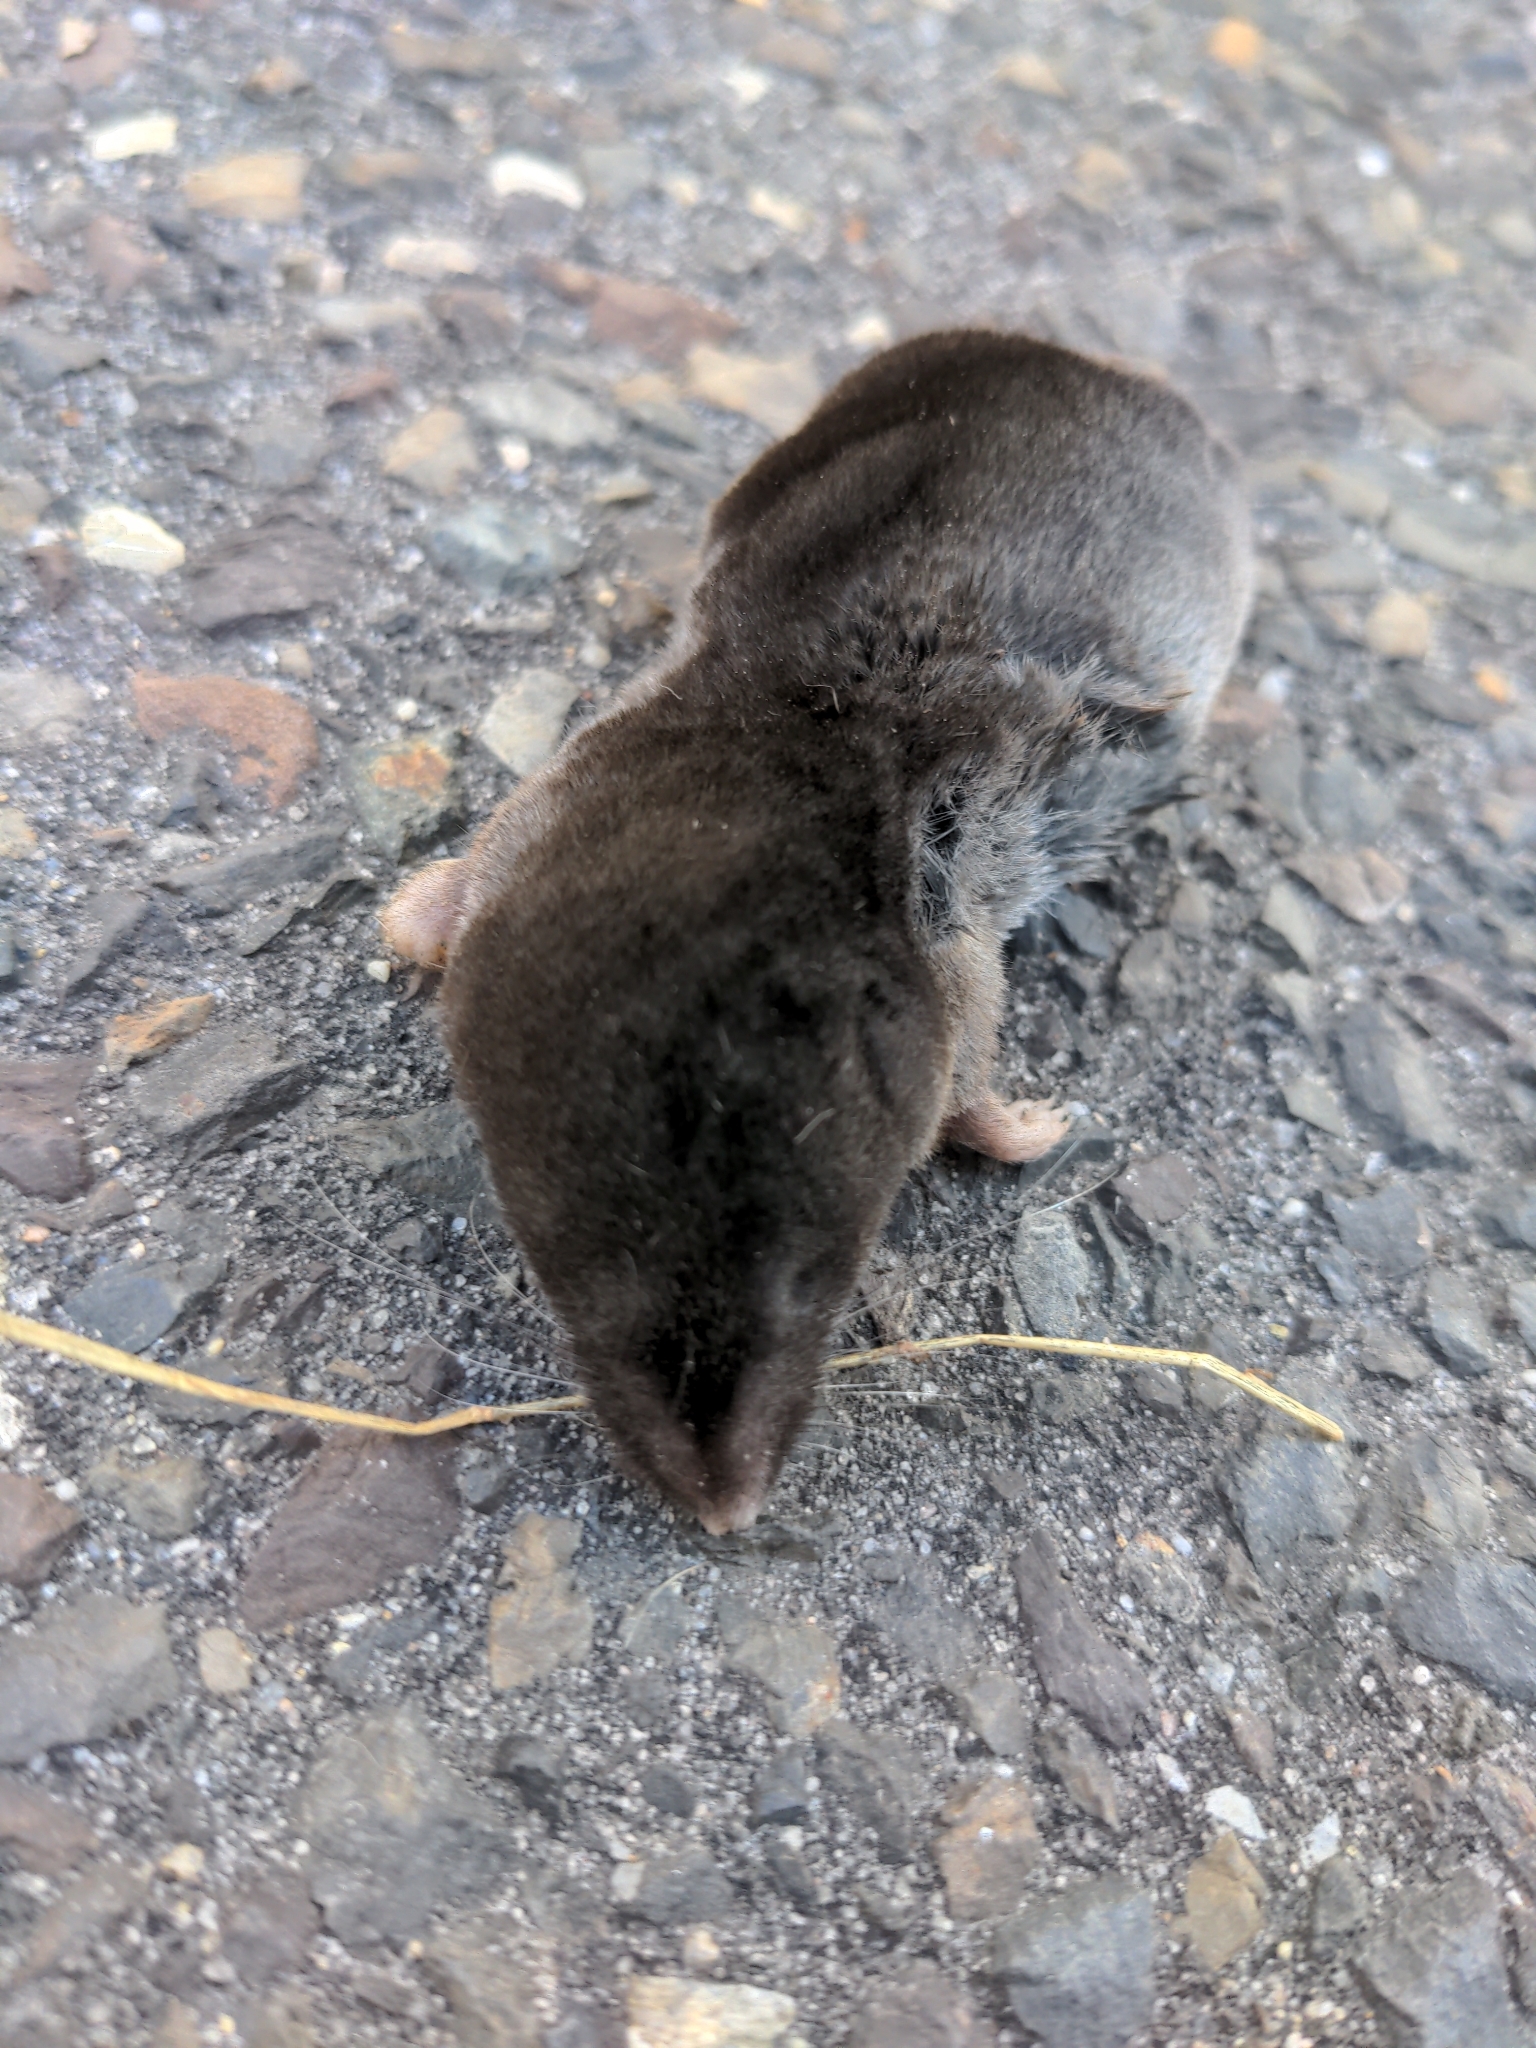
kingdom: Animalia
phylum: Chordata
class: Mammalia
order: Soricomorpha
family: Soricidae
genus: Blarina
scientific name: Blarina brevicauda
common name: Northern short-tailed shrew
